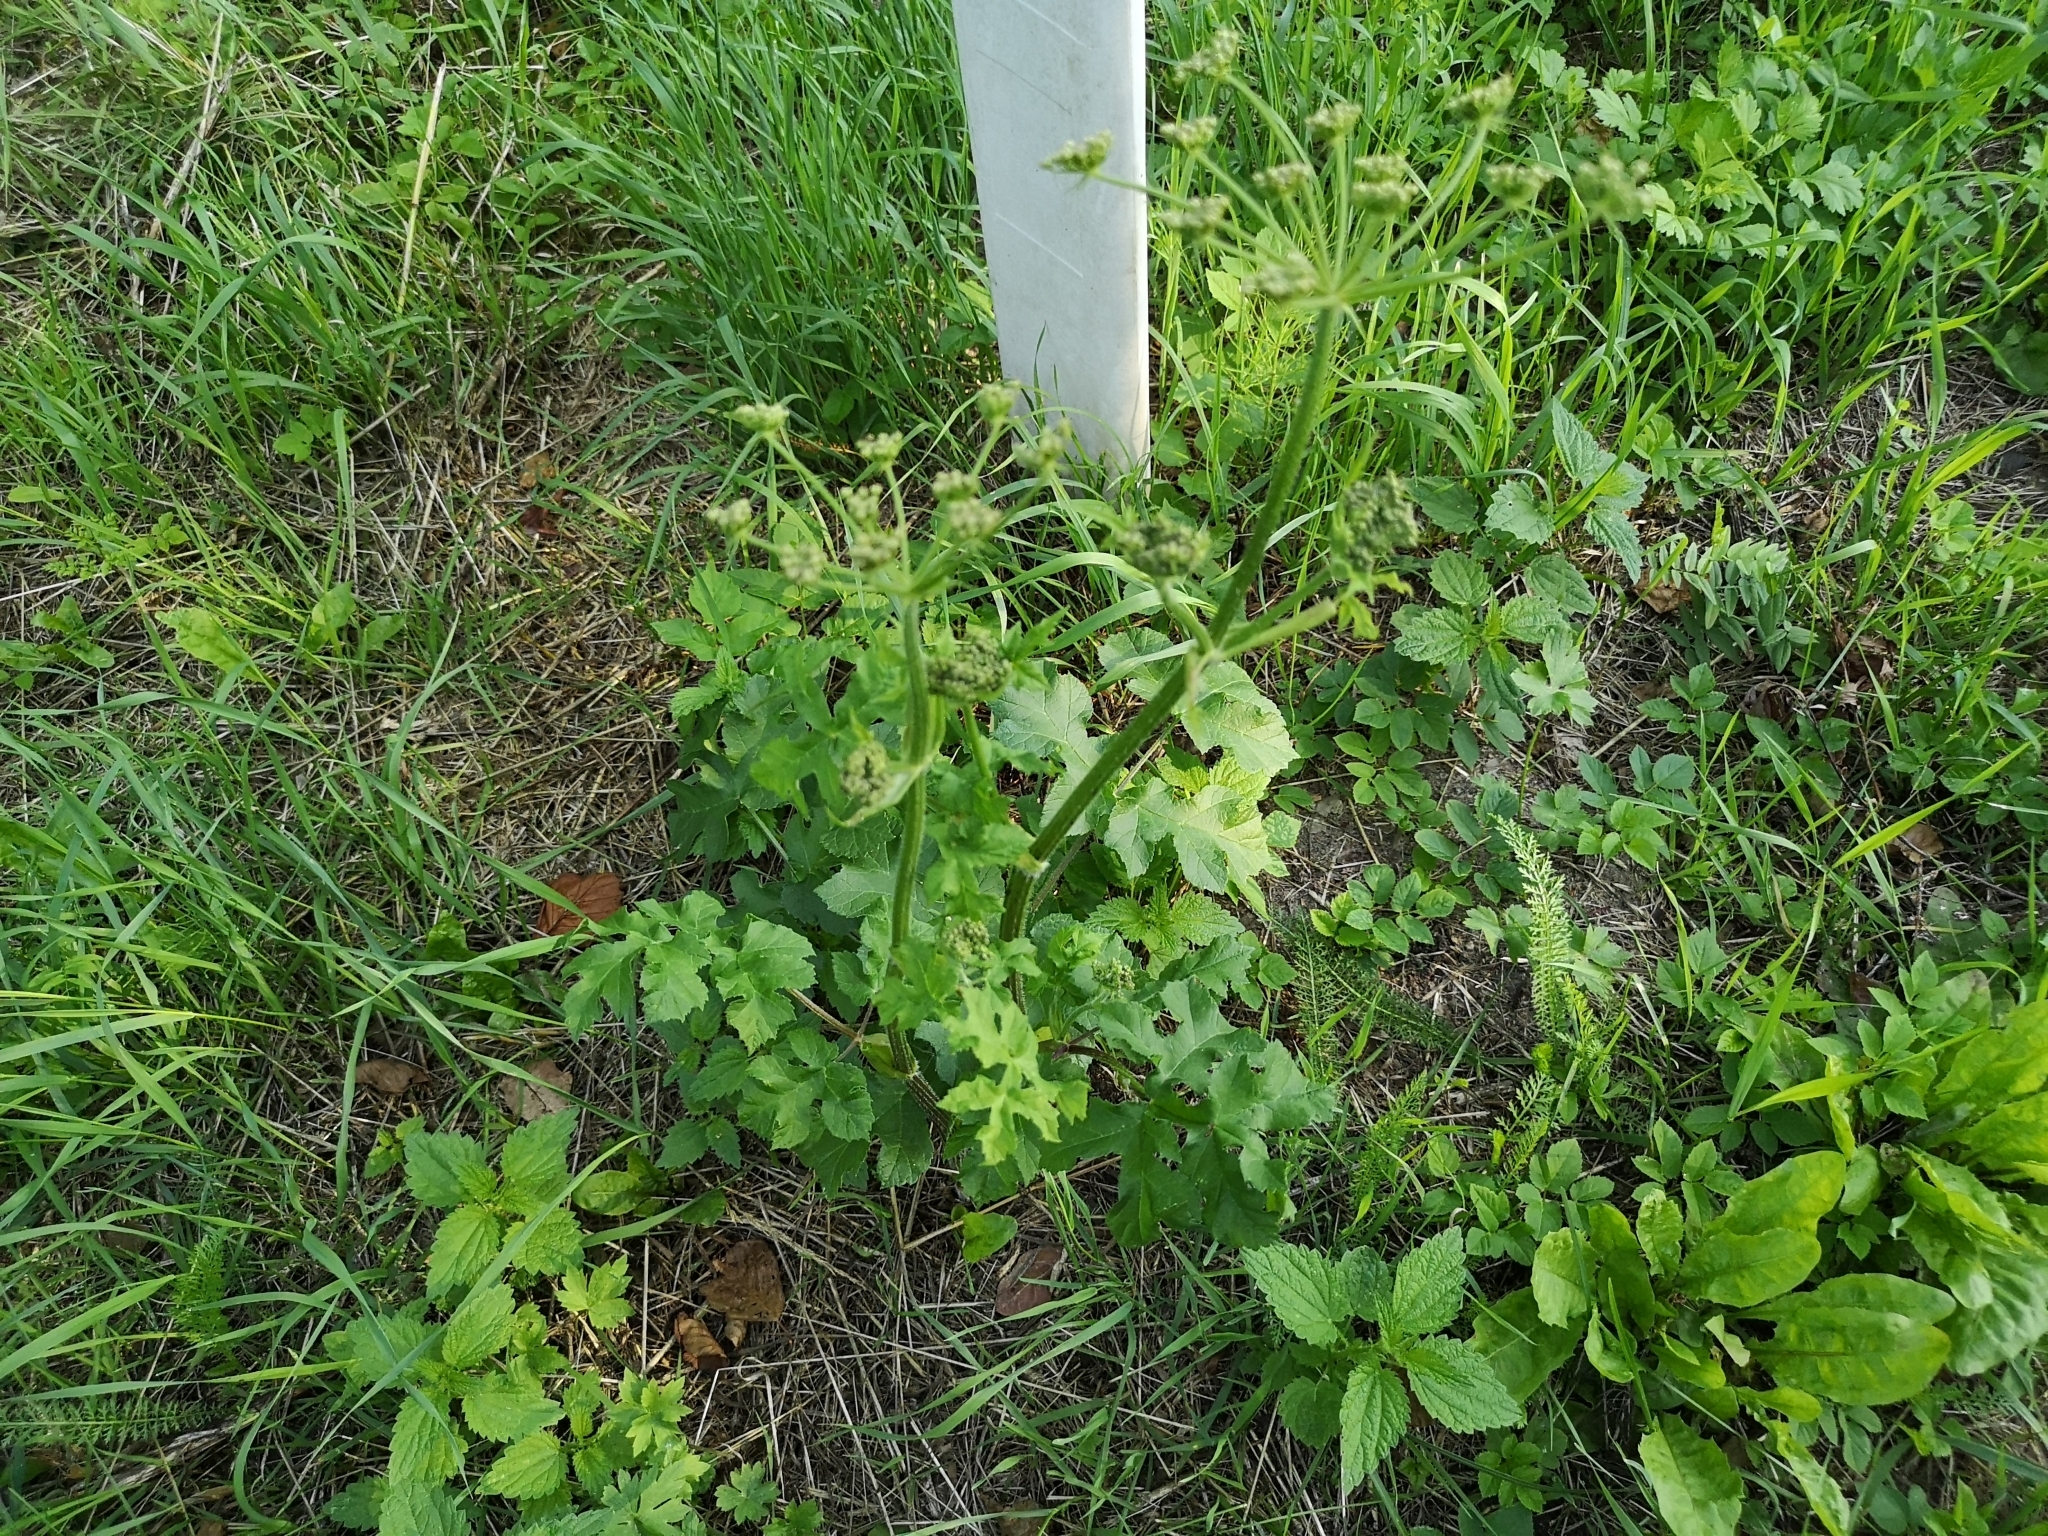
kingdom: Plantae
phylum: Tracheophyta
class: Magnoliopsida
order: Apiales
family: Apiaceae
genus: Heracleum
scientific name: Heracleum sphondylium
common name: Hogweed
